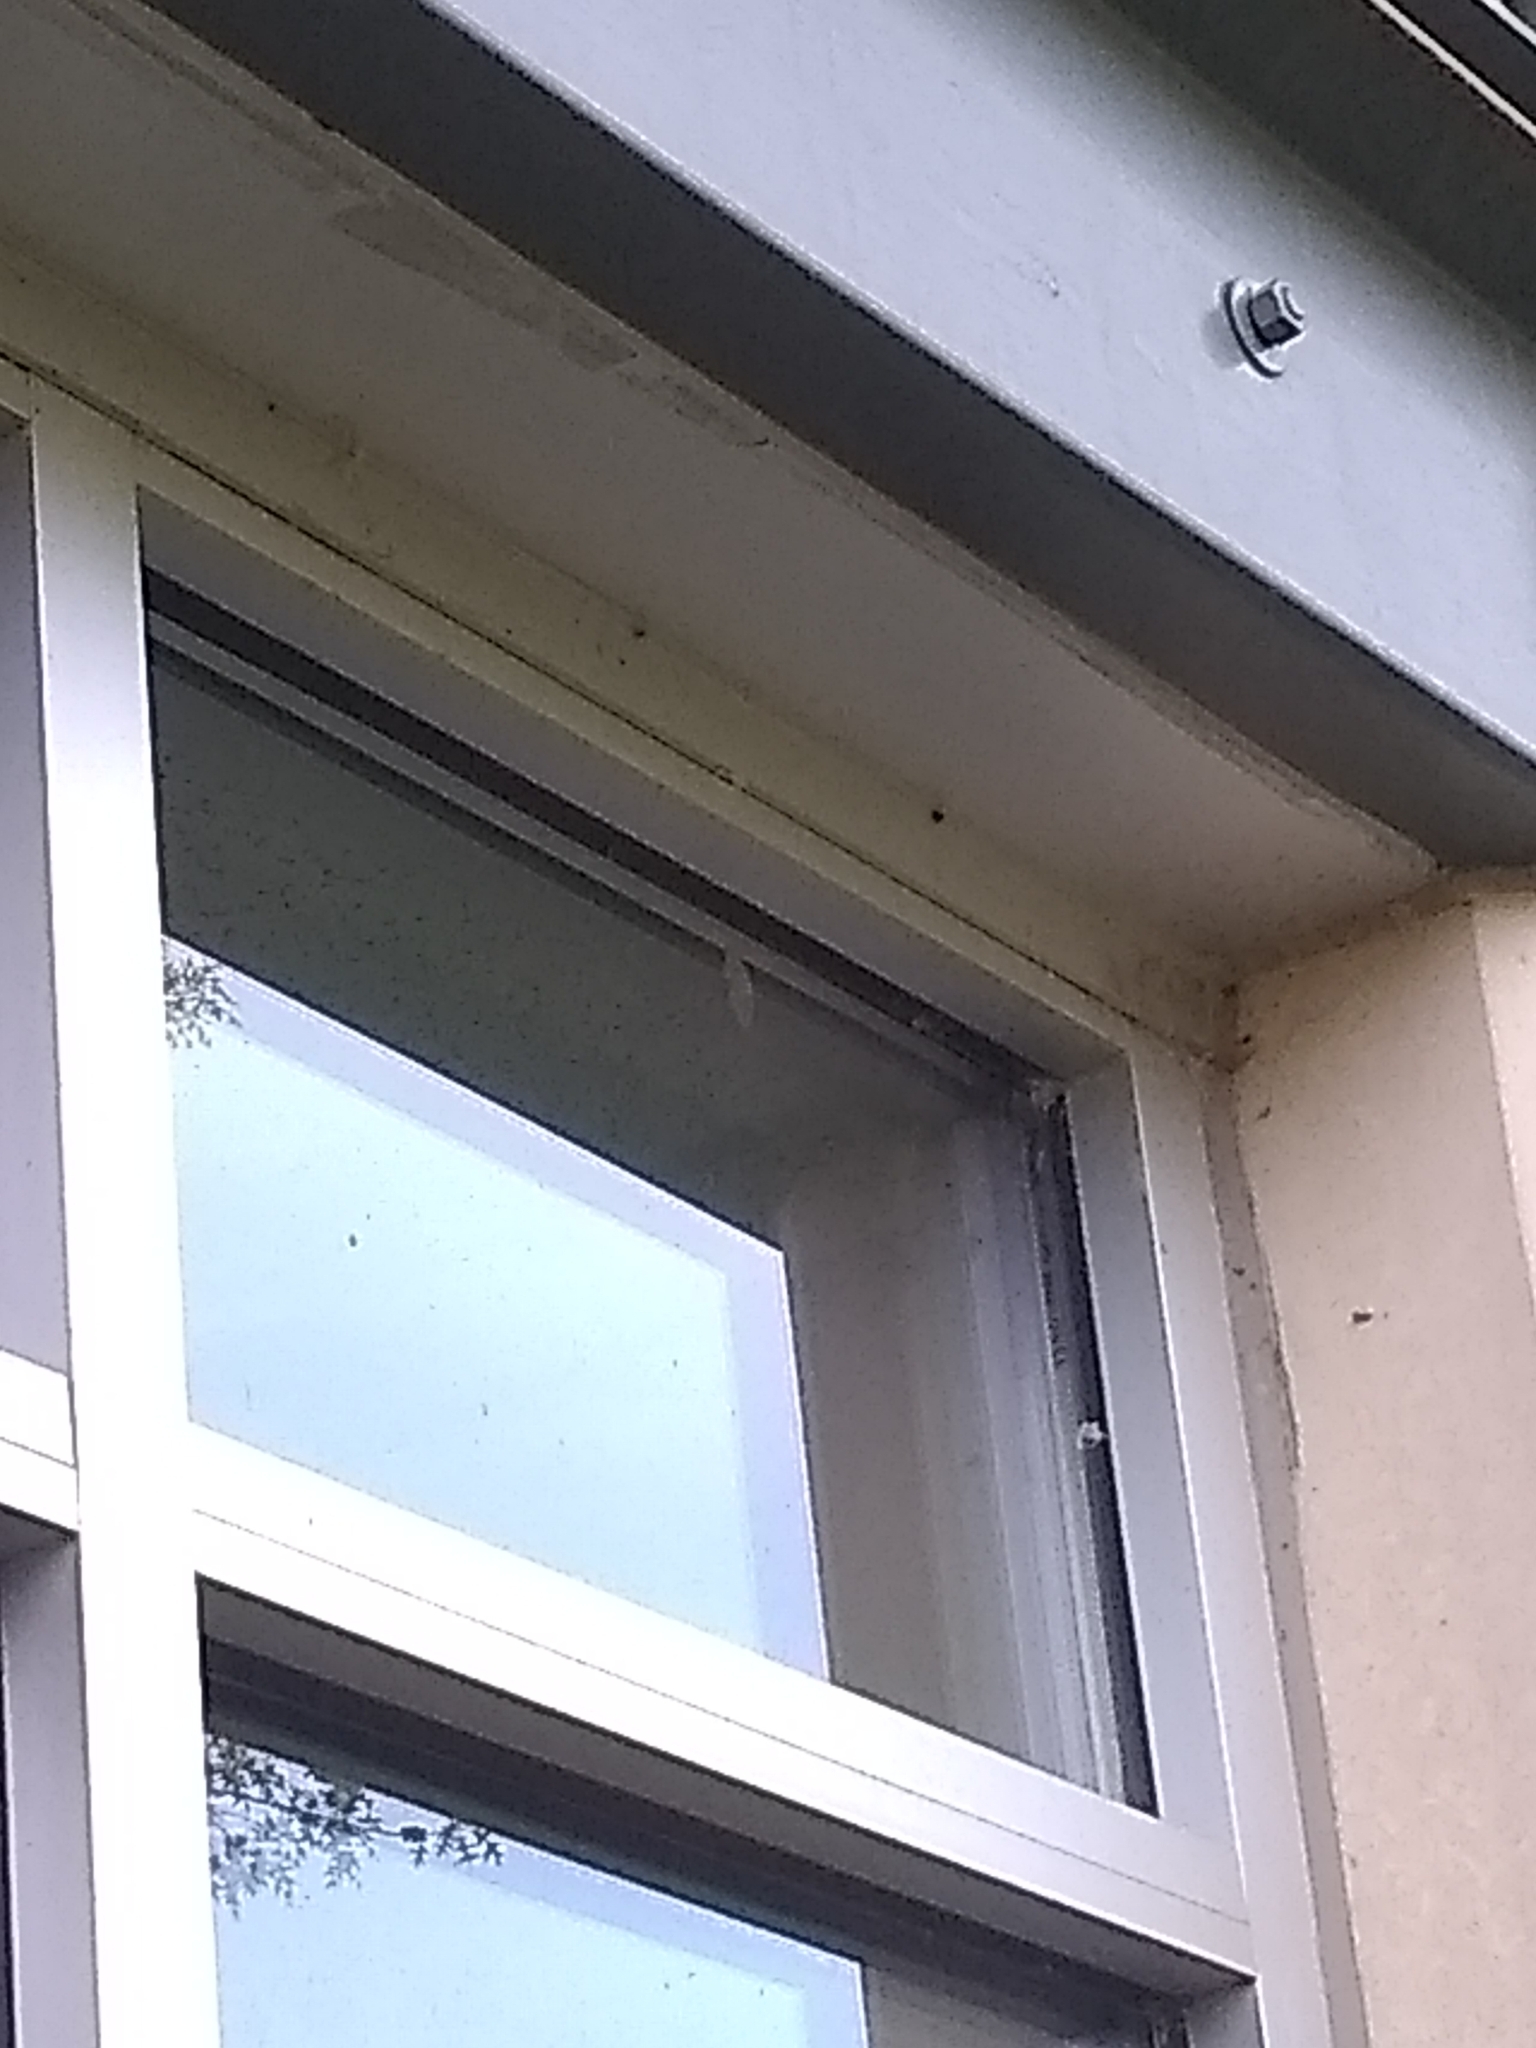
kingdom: Animalia
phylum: Arthropoda
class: Insecta
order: Lepidoptera
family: Geometridae
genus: Lambdina
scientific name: Lambdina fiscellaria
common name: Hemlock looper
